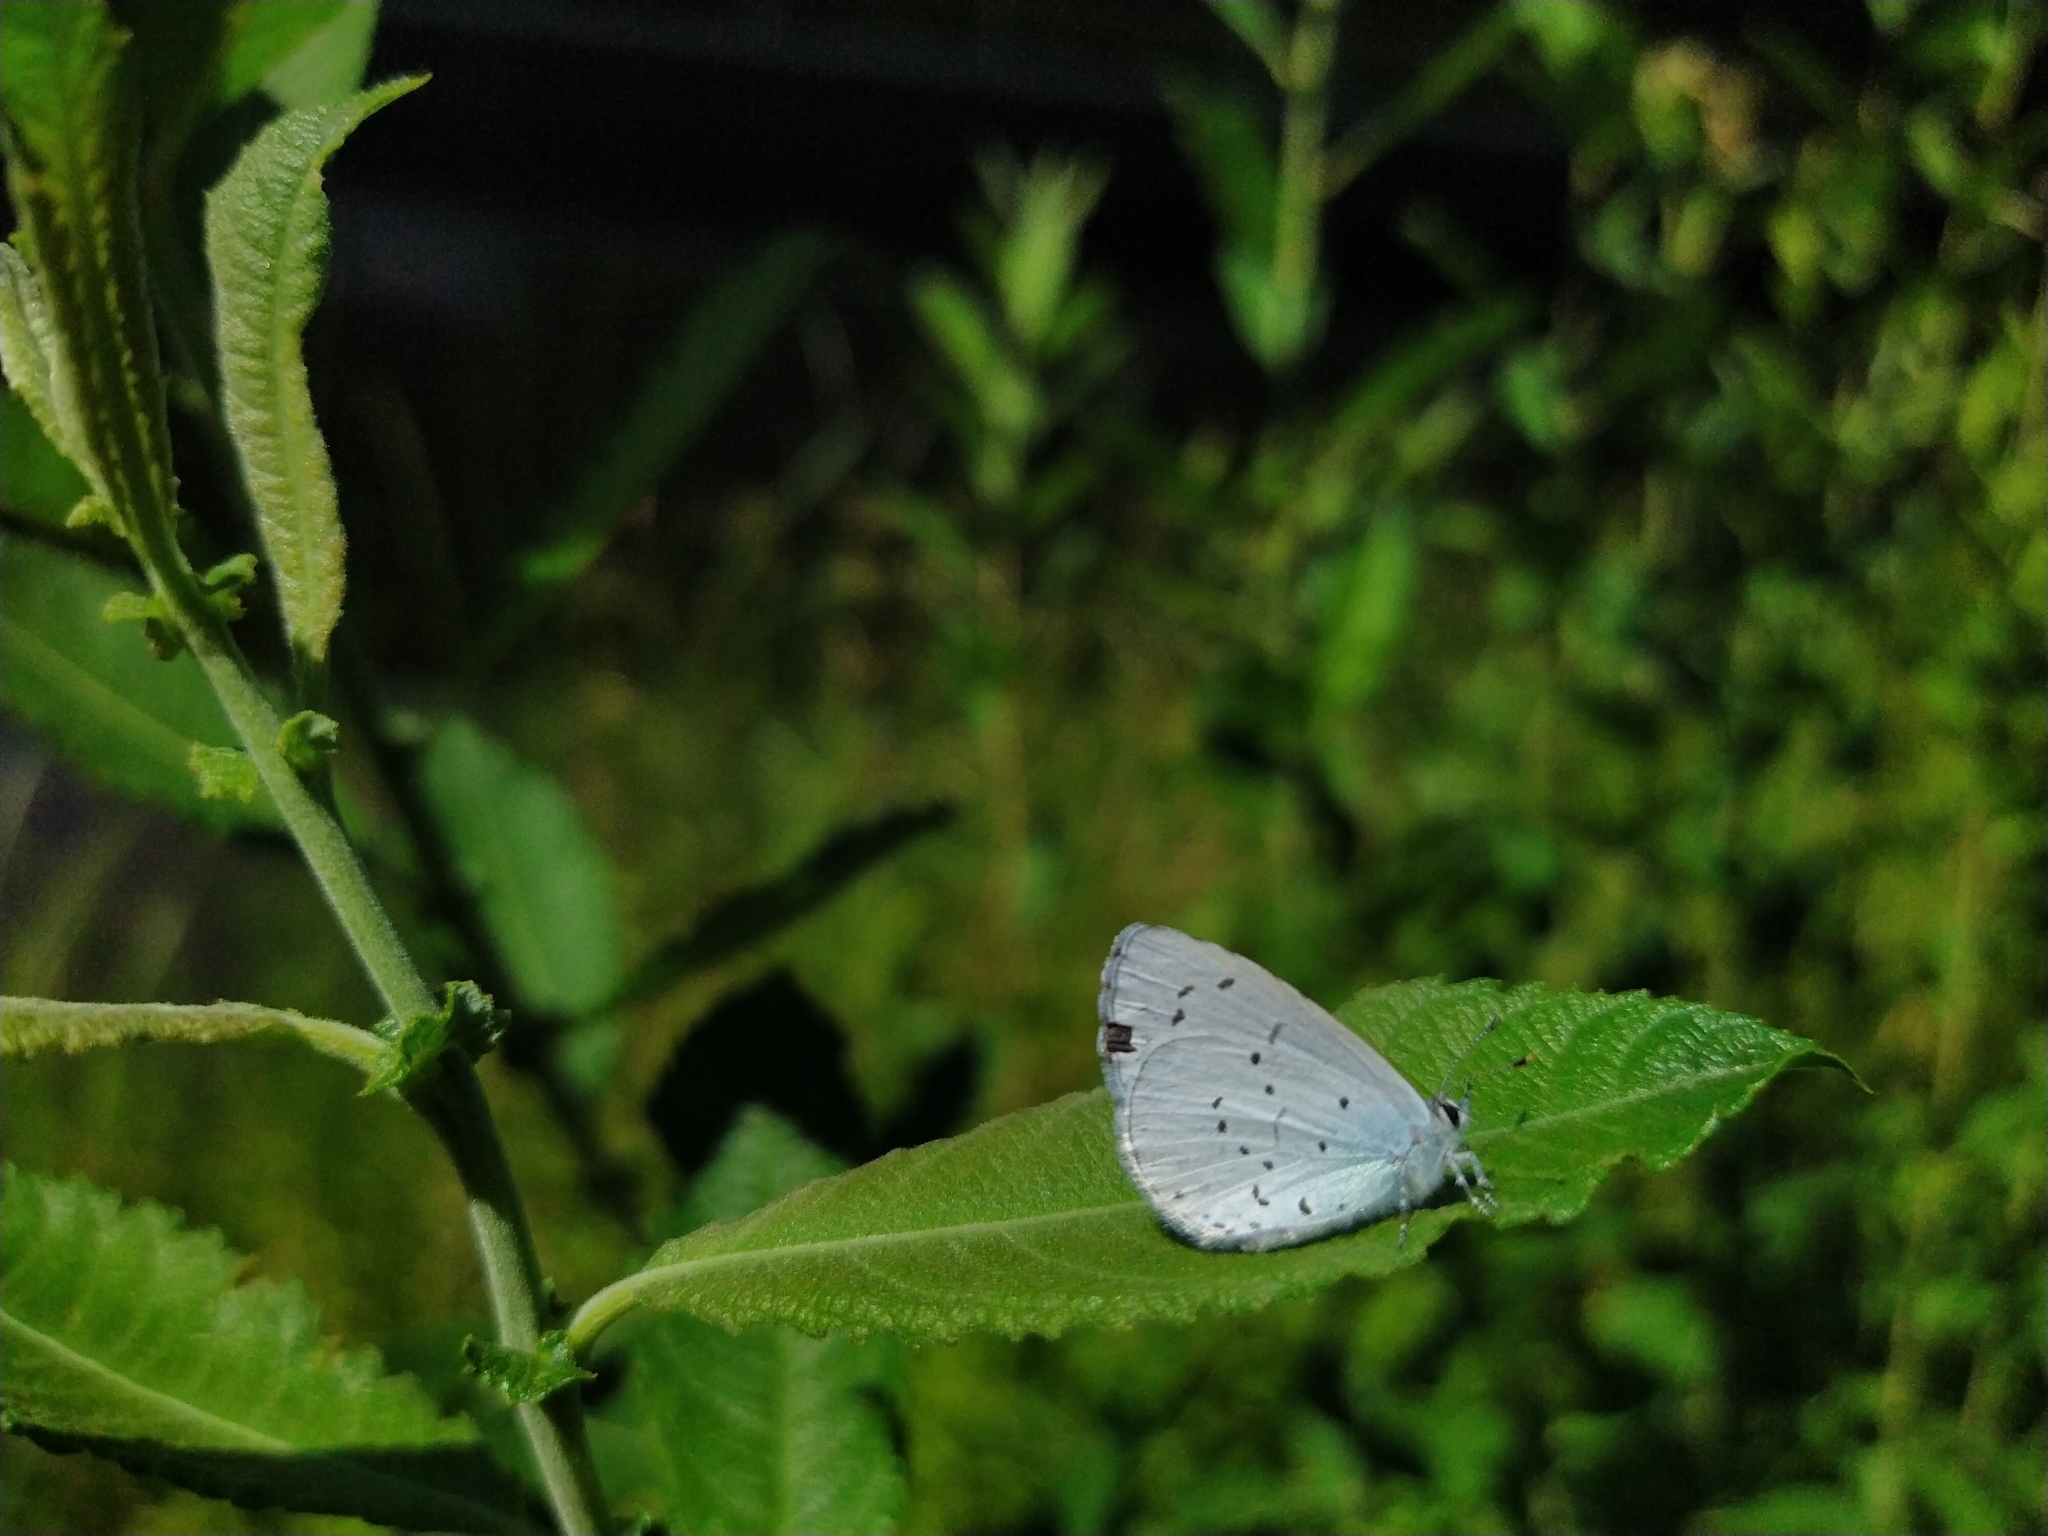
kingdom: Animalia
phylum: Arthropoda
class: Insecta
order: Lepidoptera
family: Lycaenidae
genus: Celastrina
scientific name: Celastrina argiolus
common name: Holly blue
